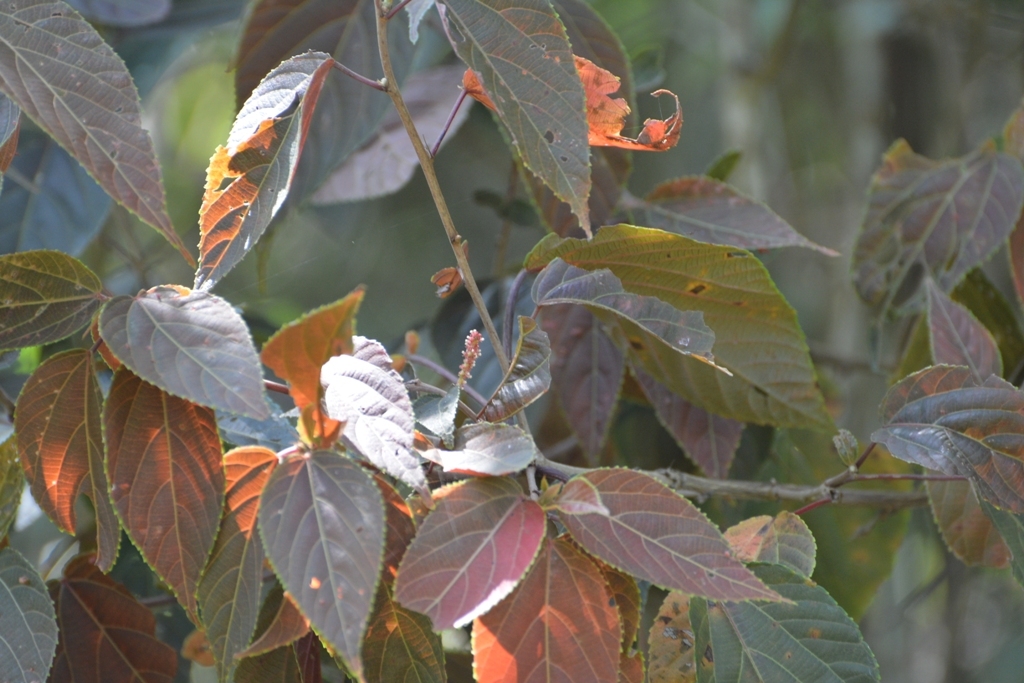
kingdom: Plantae
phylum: Tracheophyta
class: Magnoliopsida
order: Malpighiales
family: Euphorbiaceae
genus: Acalypha
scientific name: Acalypha chiapensis
